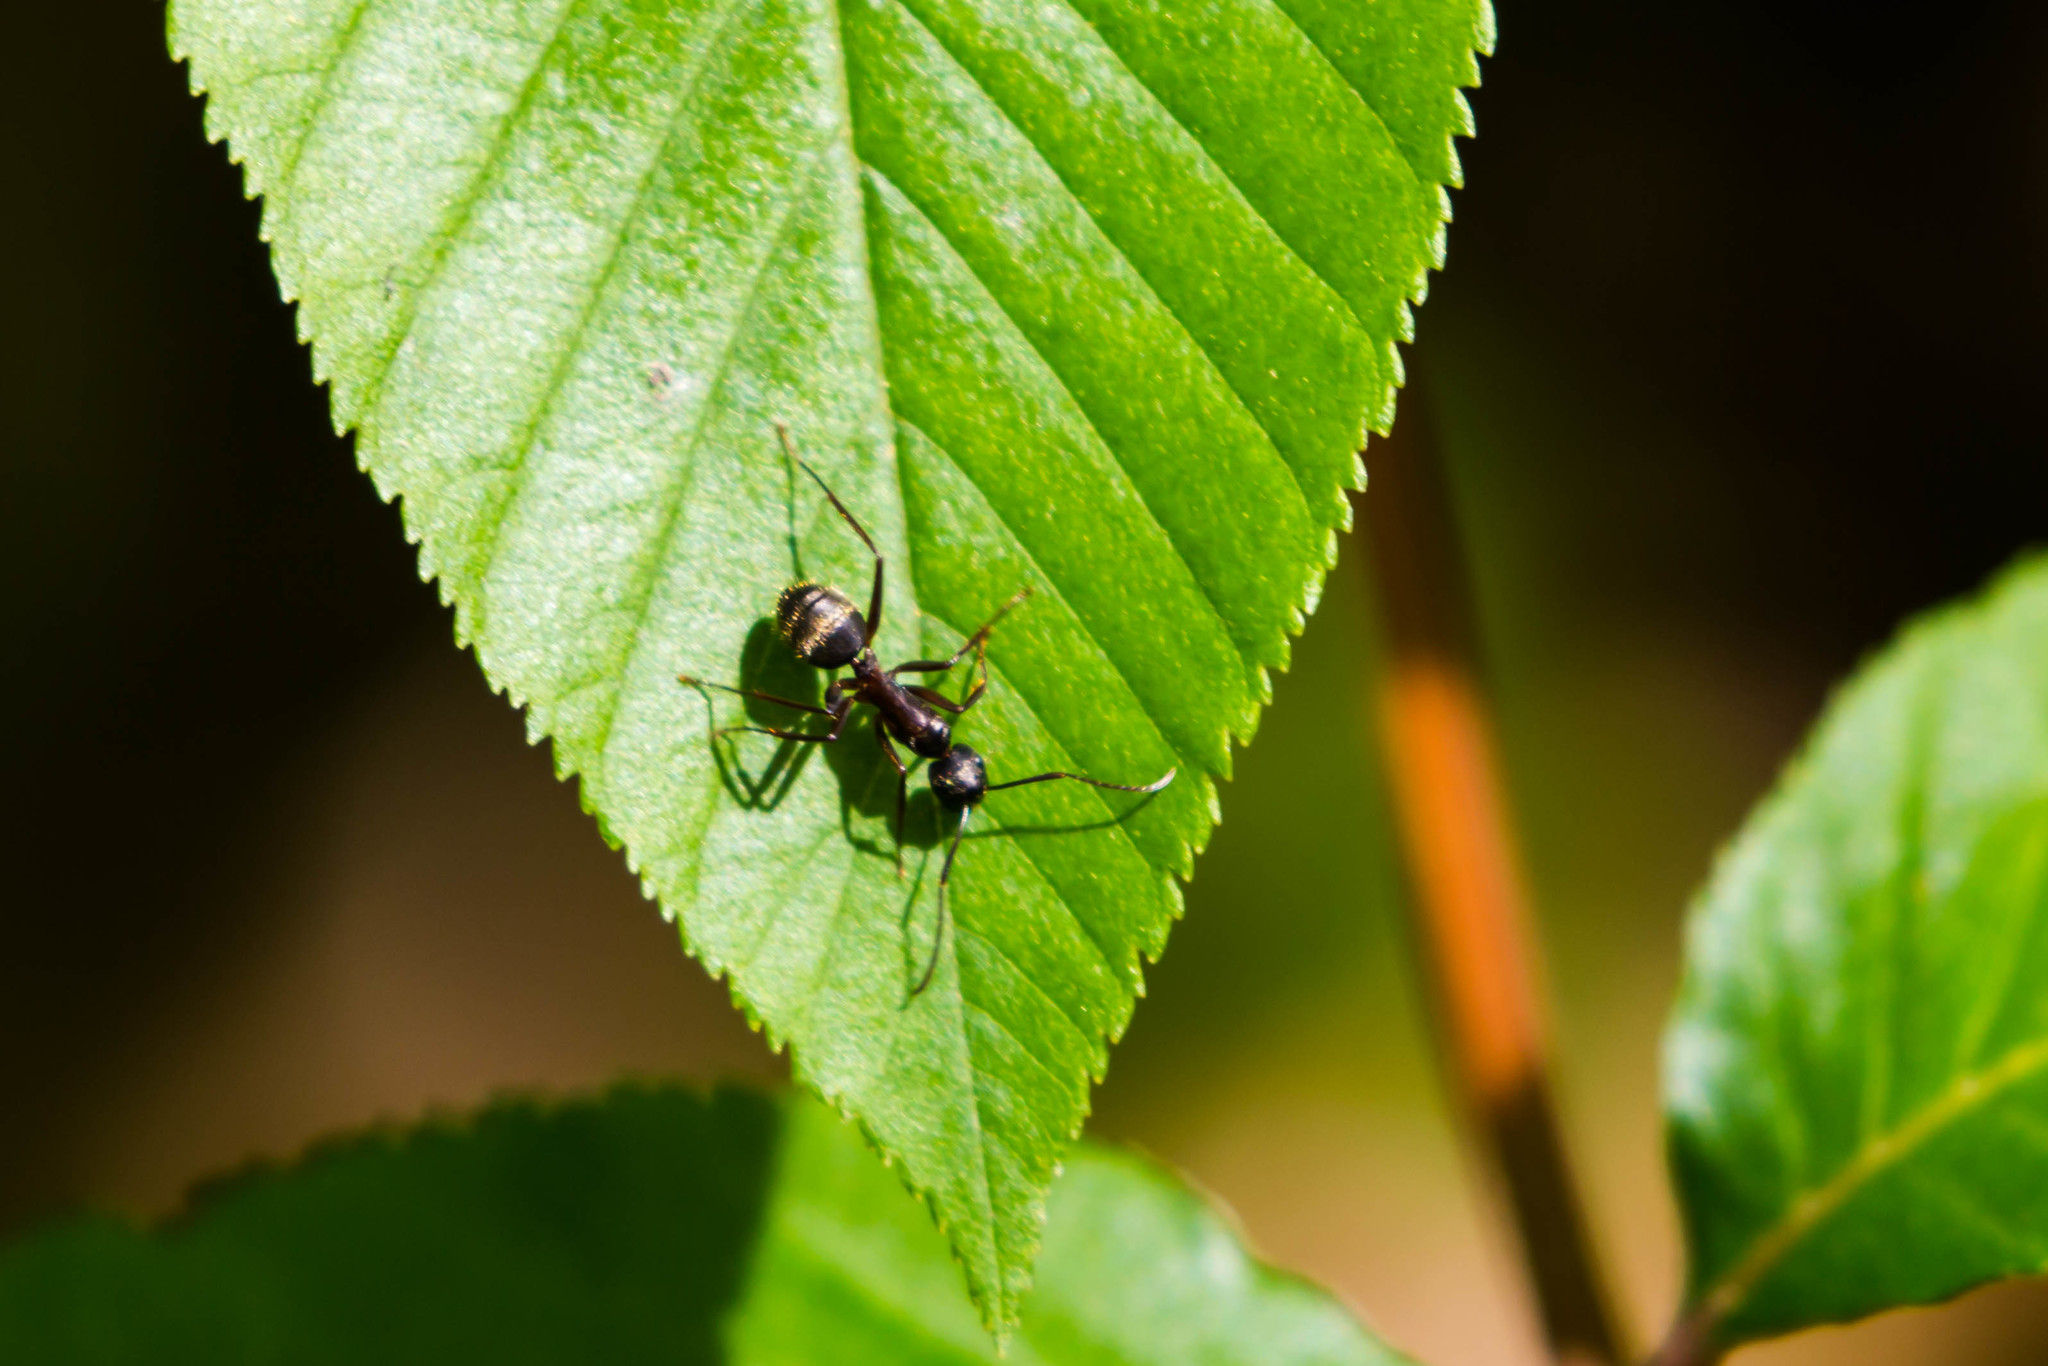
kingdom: Animalia
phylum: Arthropoda
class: Insecta
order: Hymenoptera
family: Formicidae
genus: Camponotus
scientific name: Camponotus chromaiodes
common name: Red carpenter ant
